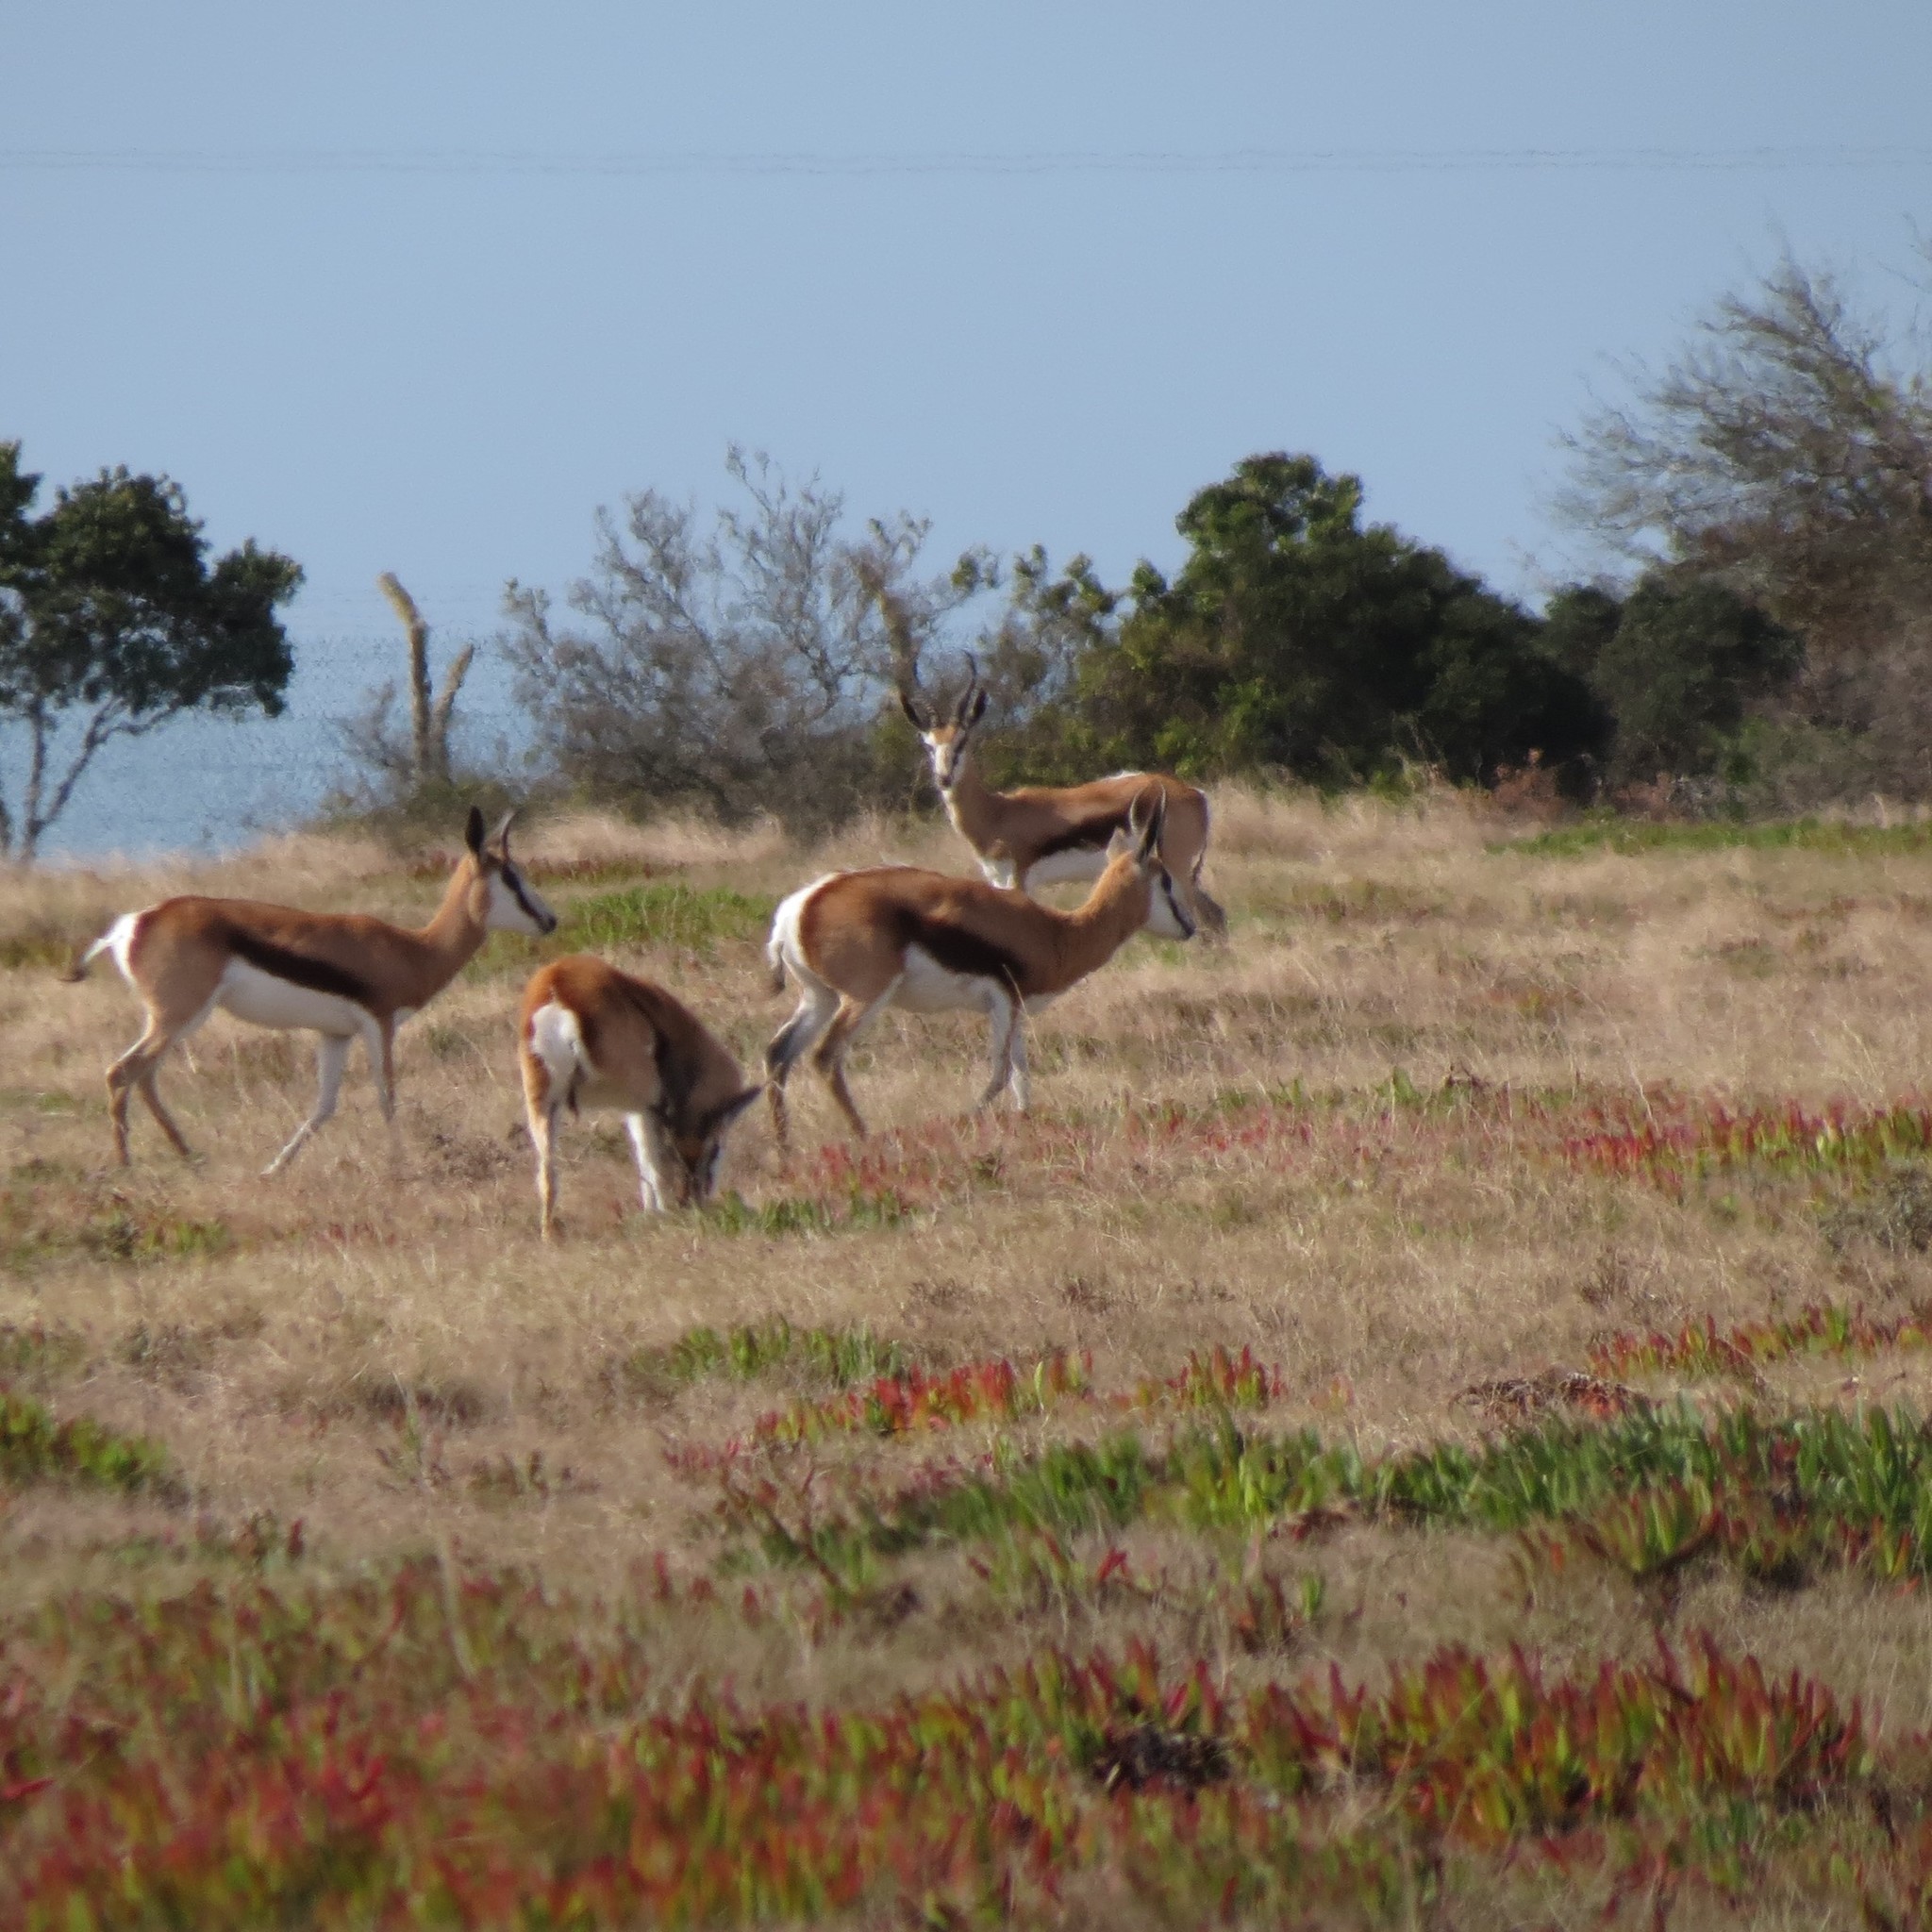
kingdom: Animalia
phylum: Chordata
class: Mammalia
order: Artiodactyla
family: Bovidae
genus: Antidorcas
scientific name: Antidorcas marsupialis
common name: Springbok
